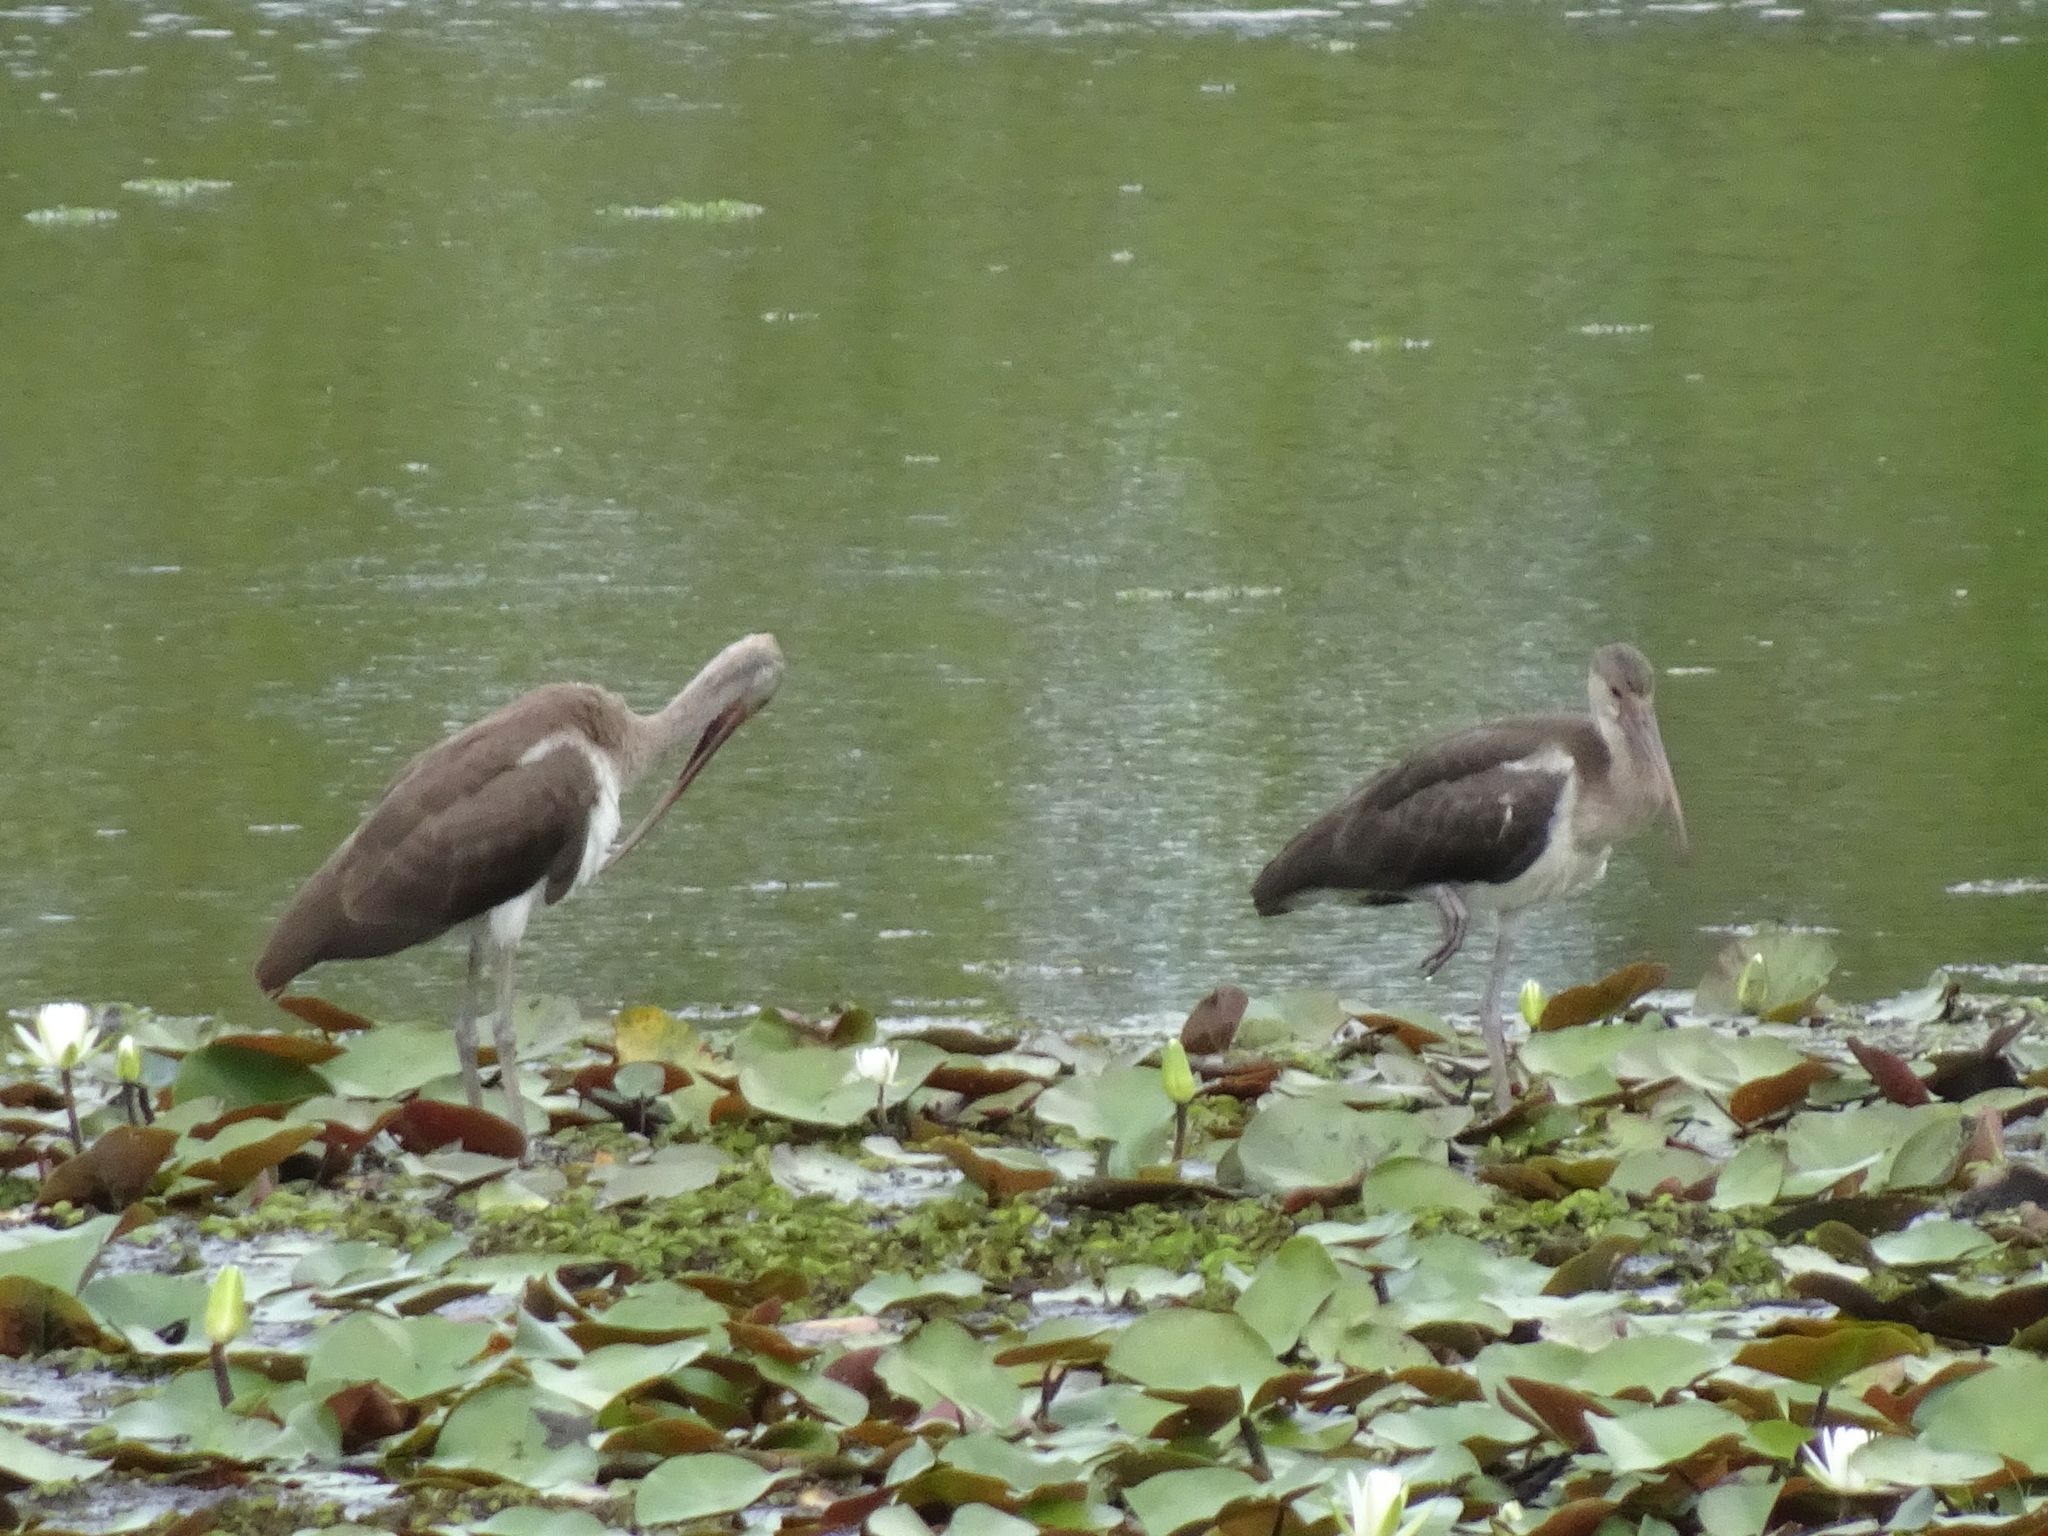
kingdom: Animalia
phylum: Chordata
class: Aves
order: Pelecaniformes
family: Threskiornithidae
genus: Eudocimus
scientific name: Eudocimus albus
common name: White ibis
